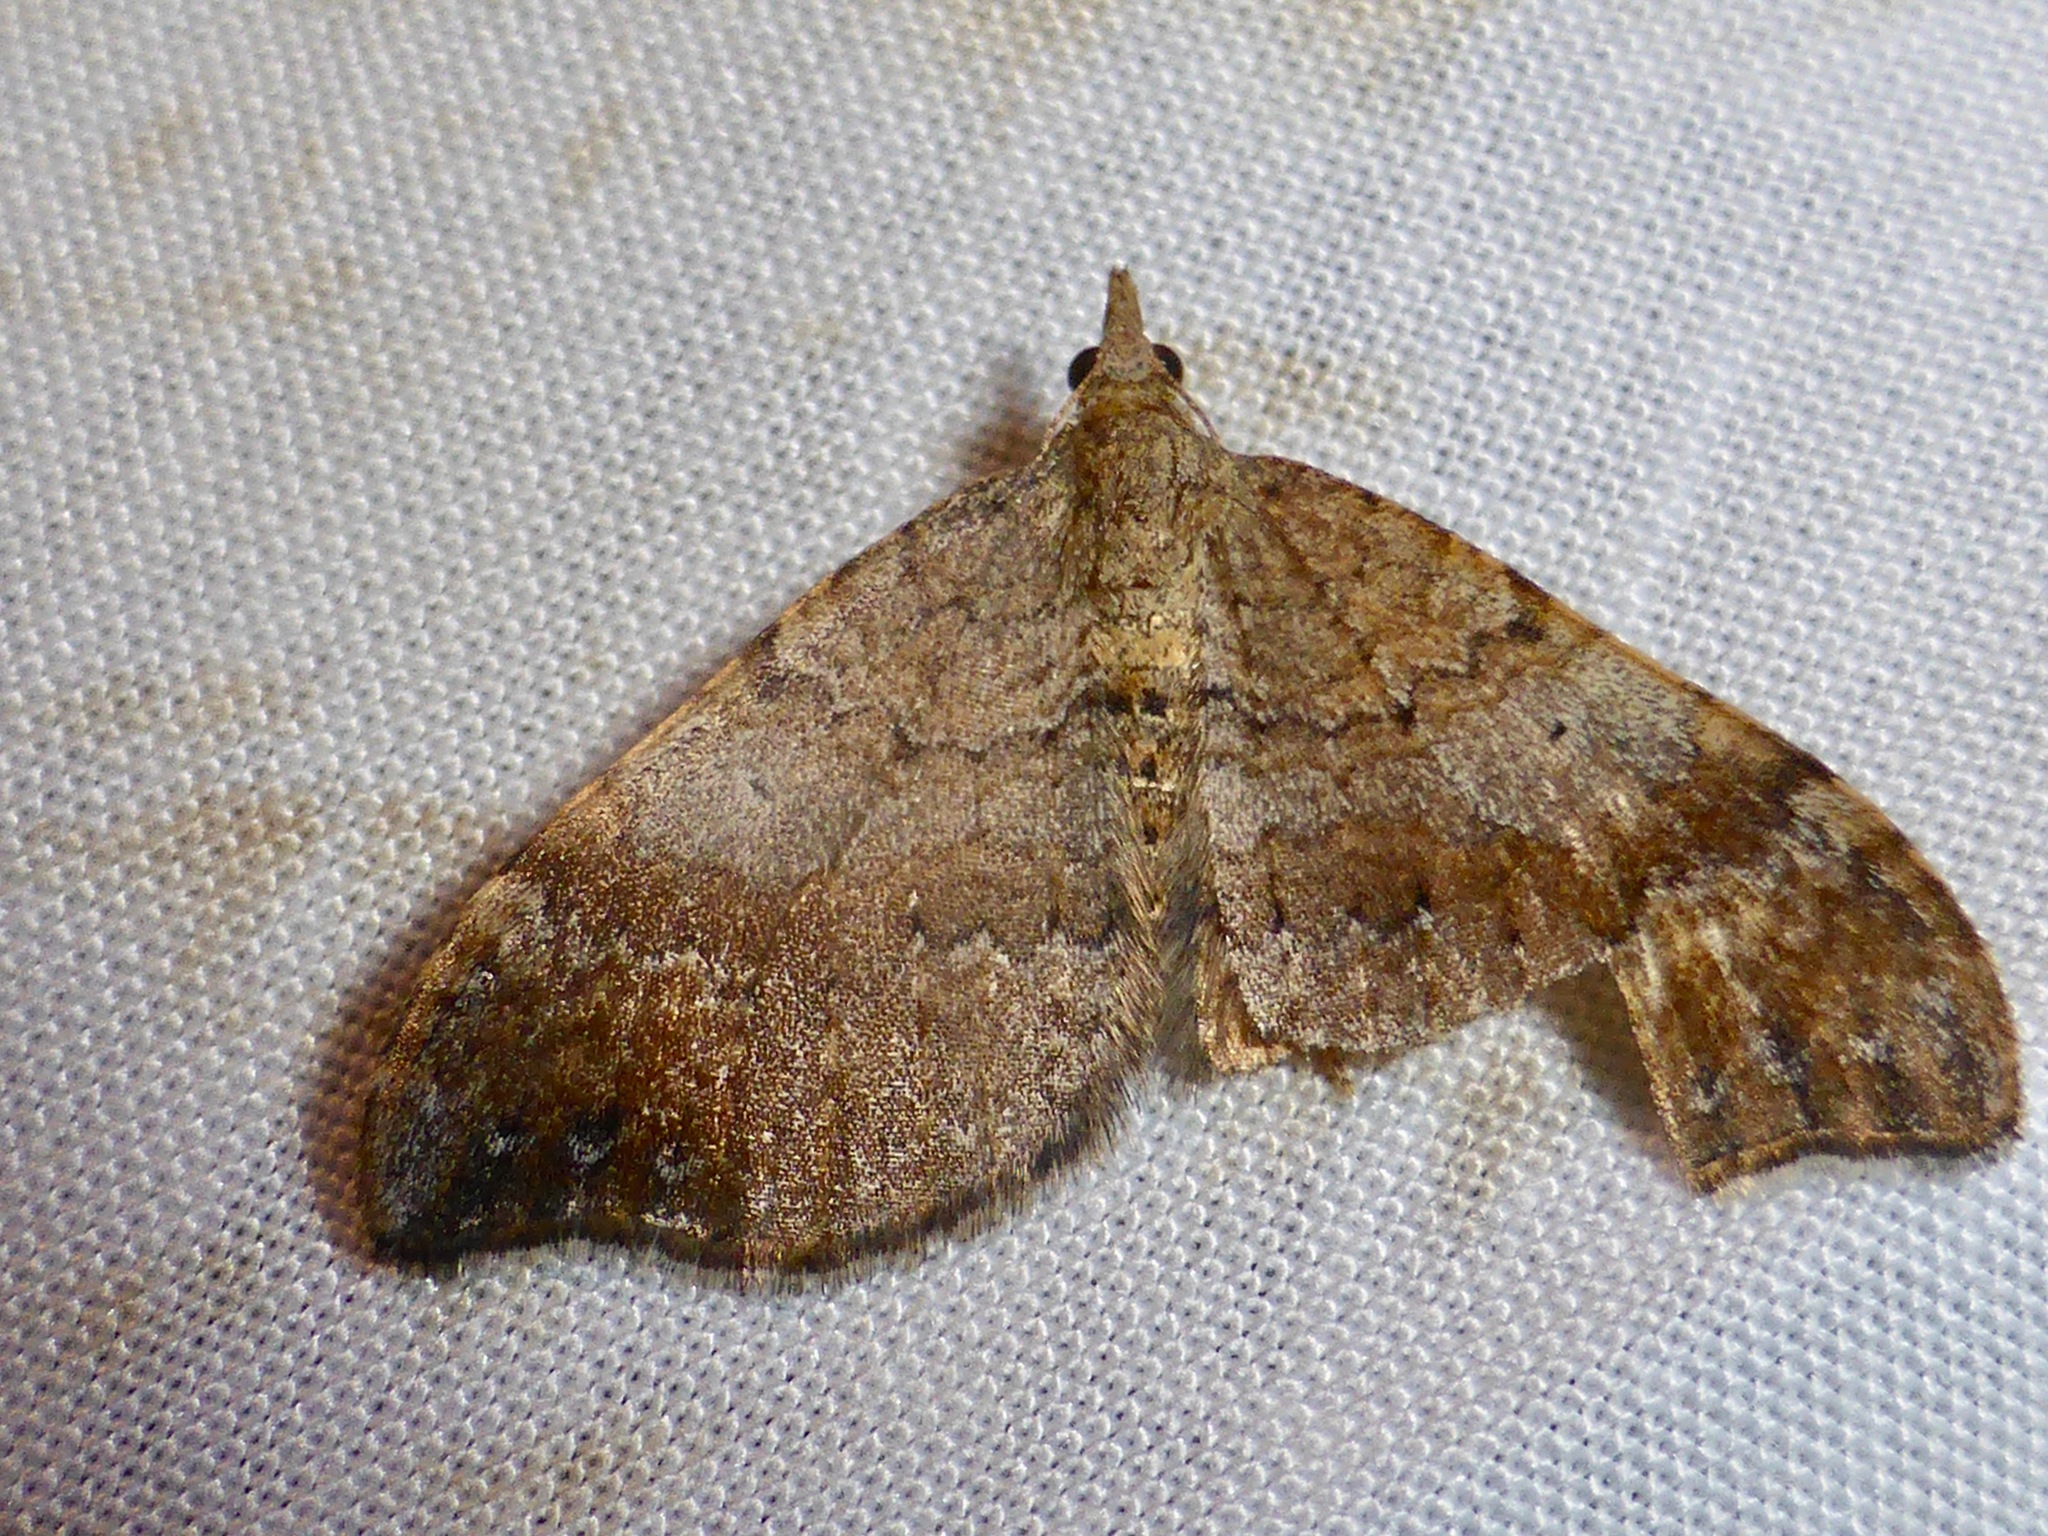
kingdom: Animalia
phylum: Arthropoda
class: Insecta
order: Lepidoptera
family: Geometridae
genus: Homodotis
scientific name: Homodotis megaspilata
